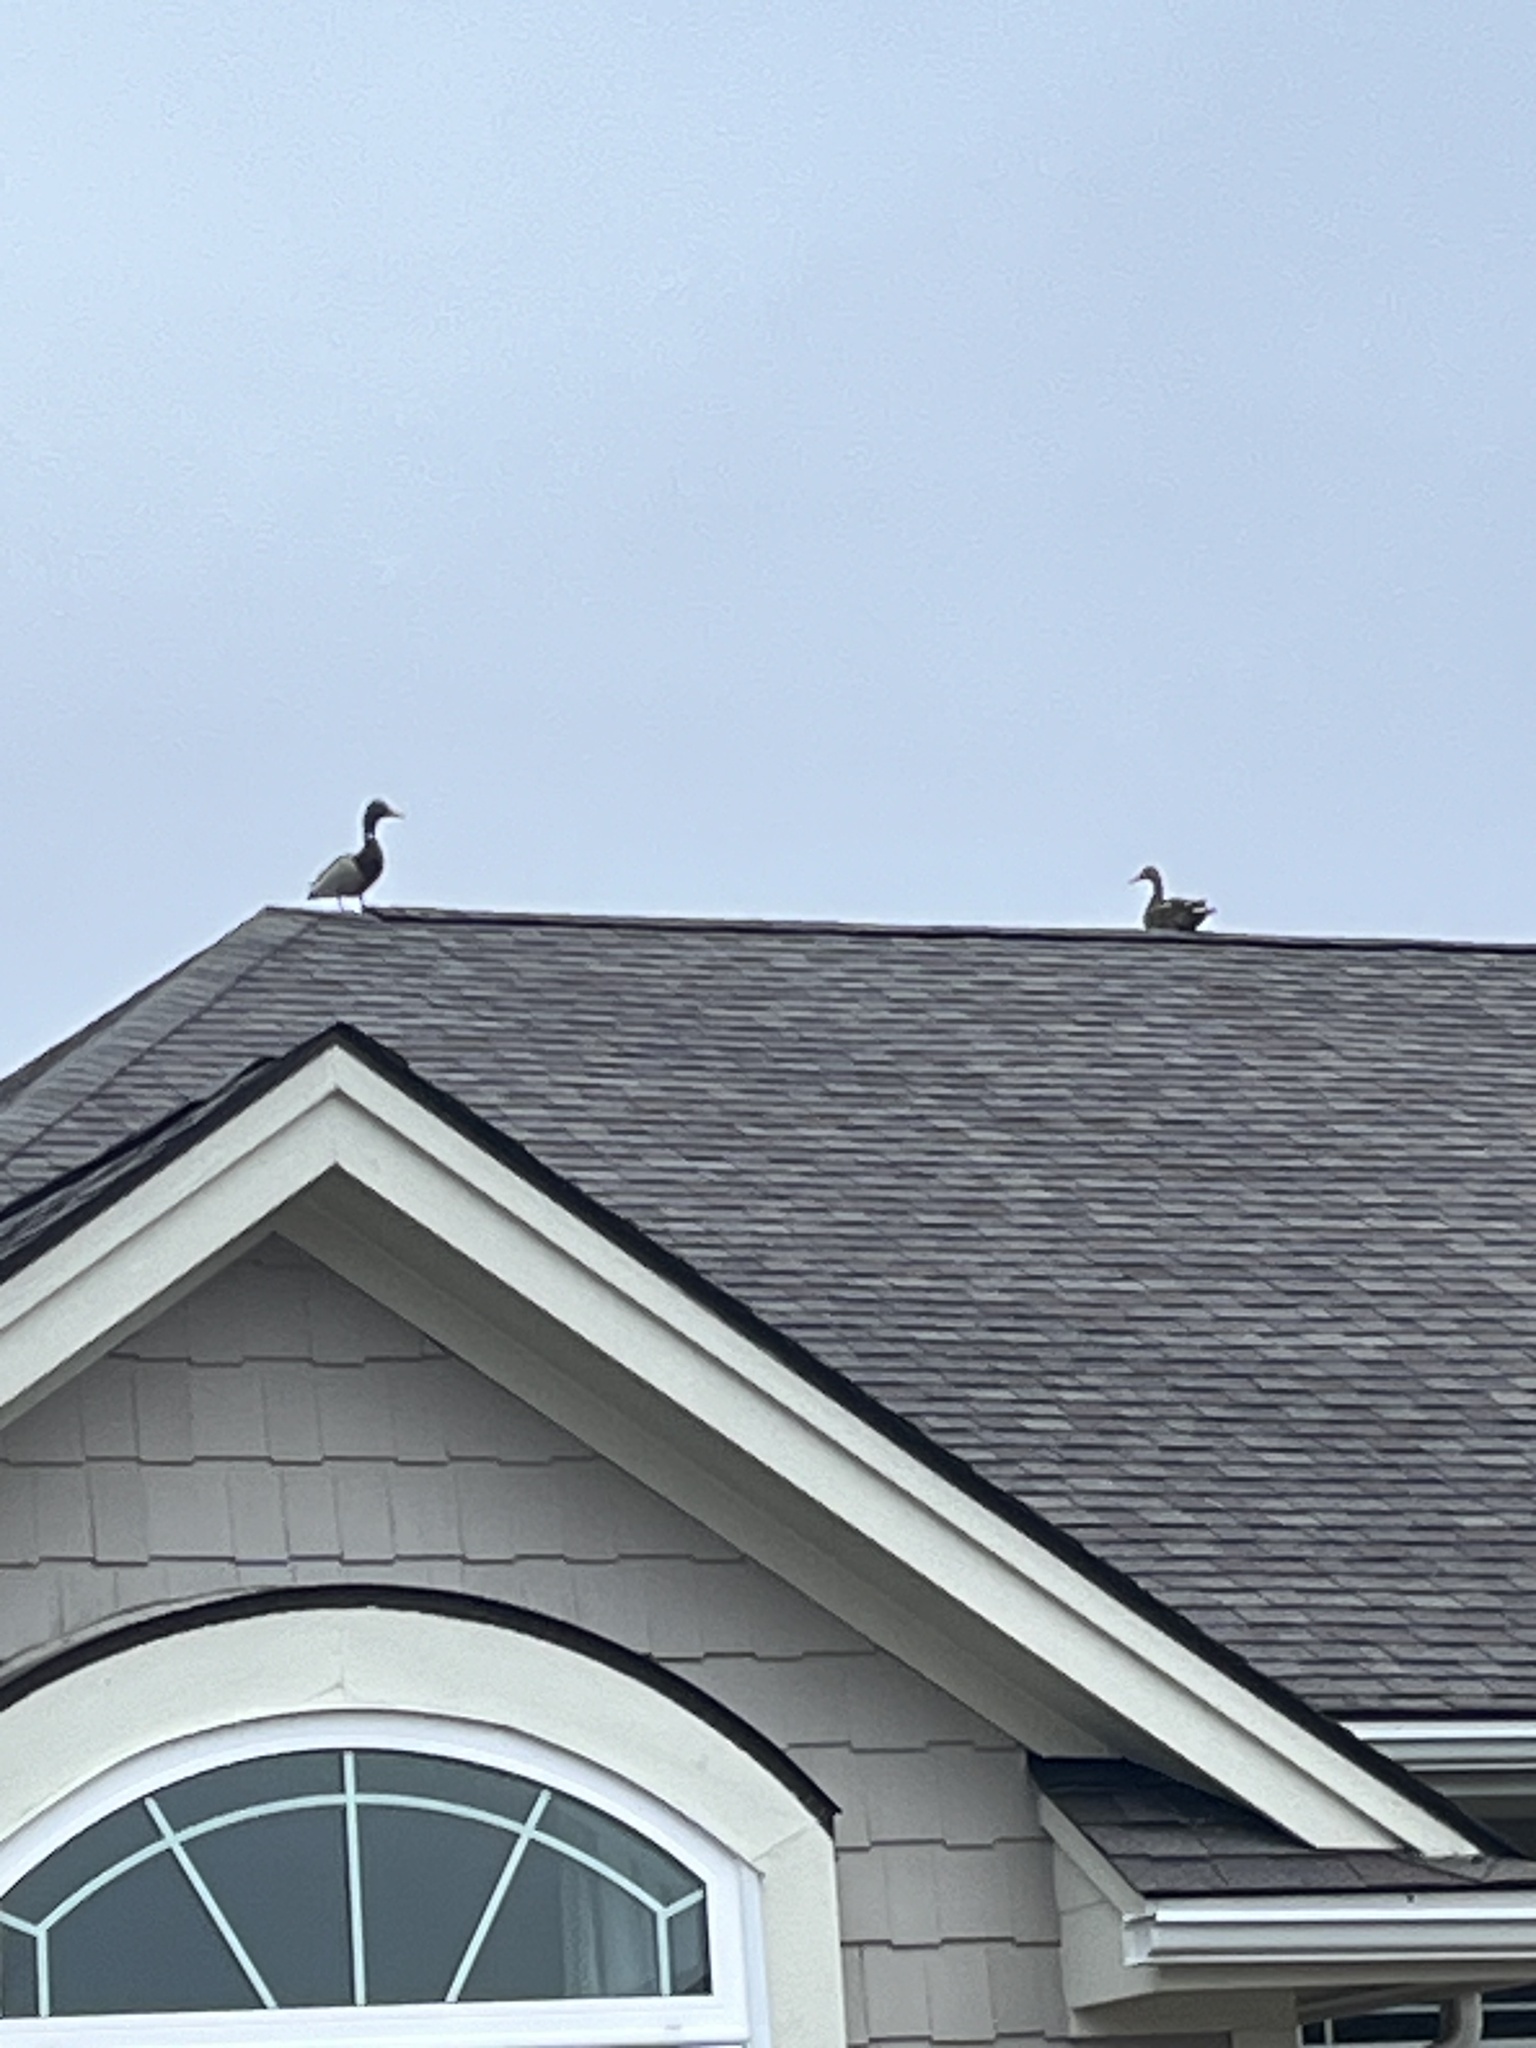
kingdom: Animalia
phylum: Chordata
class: Aves
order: Anseriformes
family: Anatidae
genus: Anas
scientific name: Anas platyrhynchos
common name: Mallard
